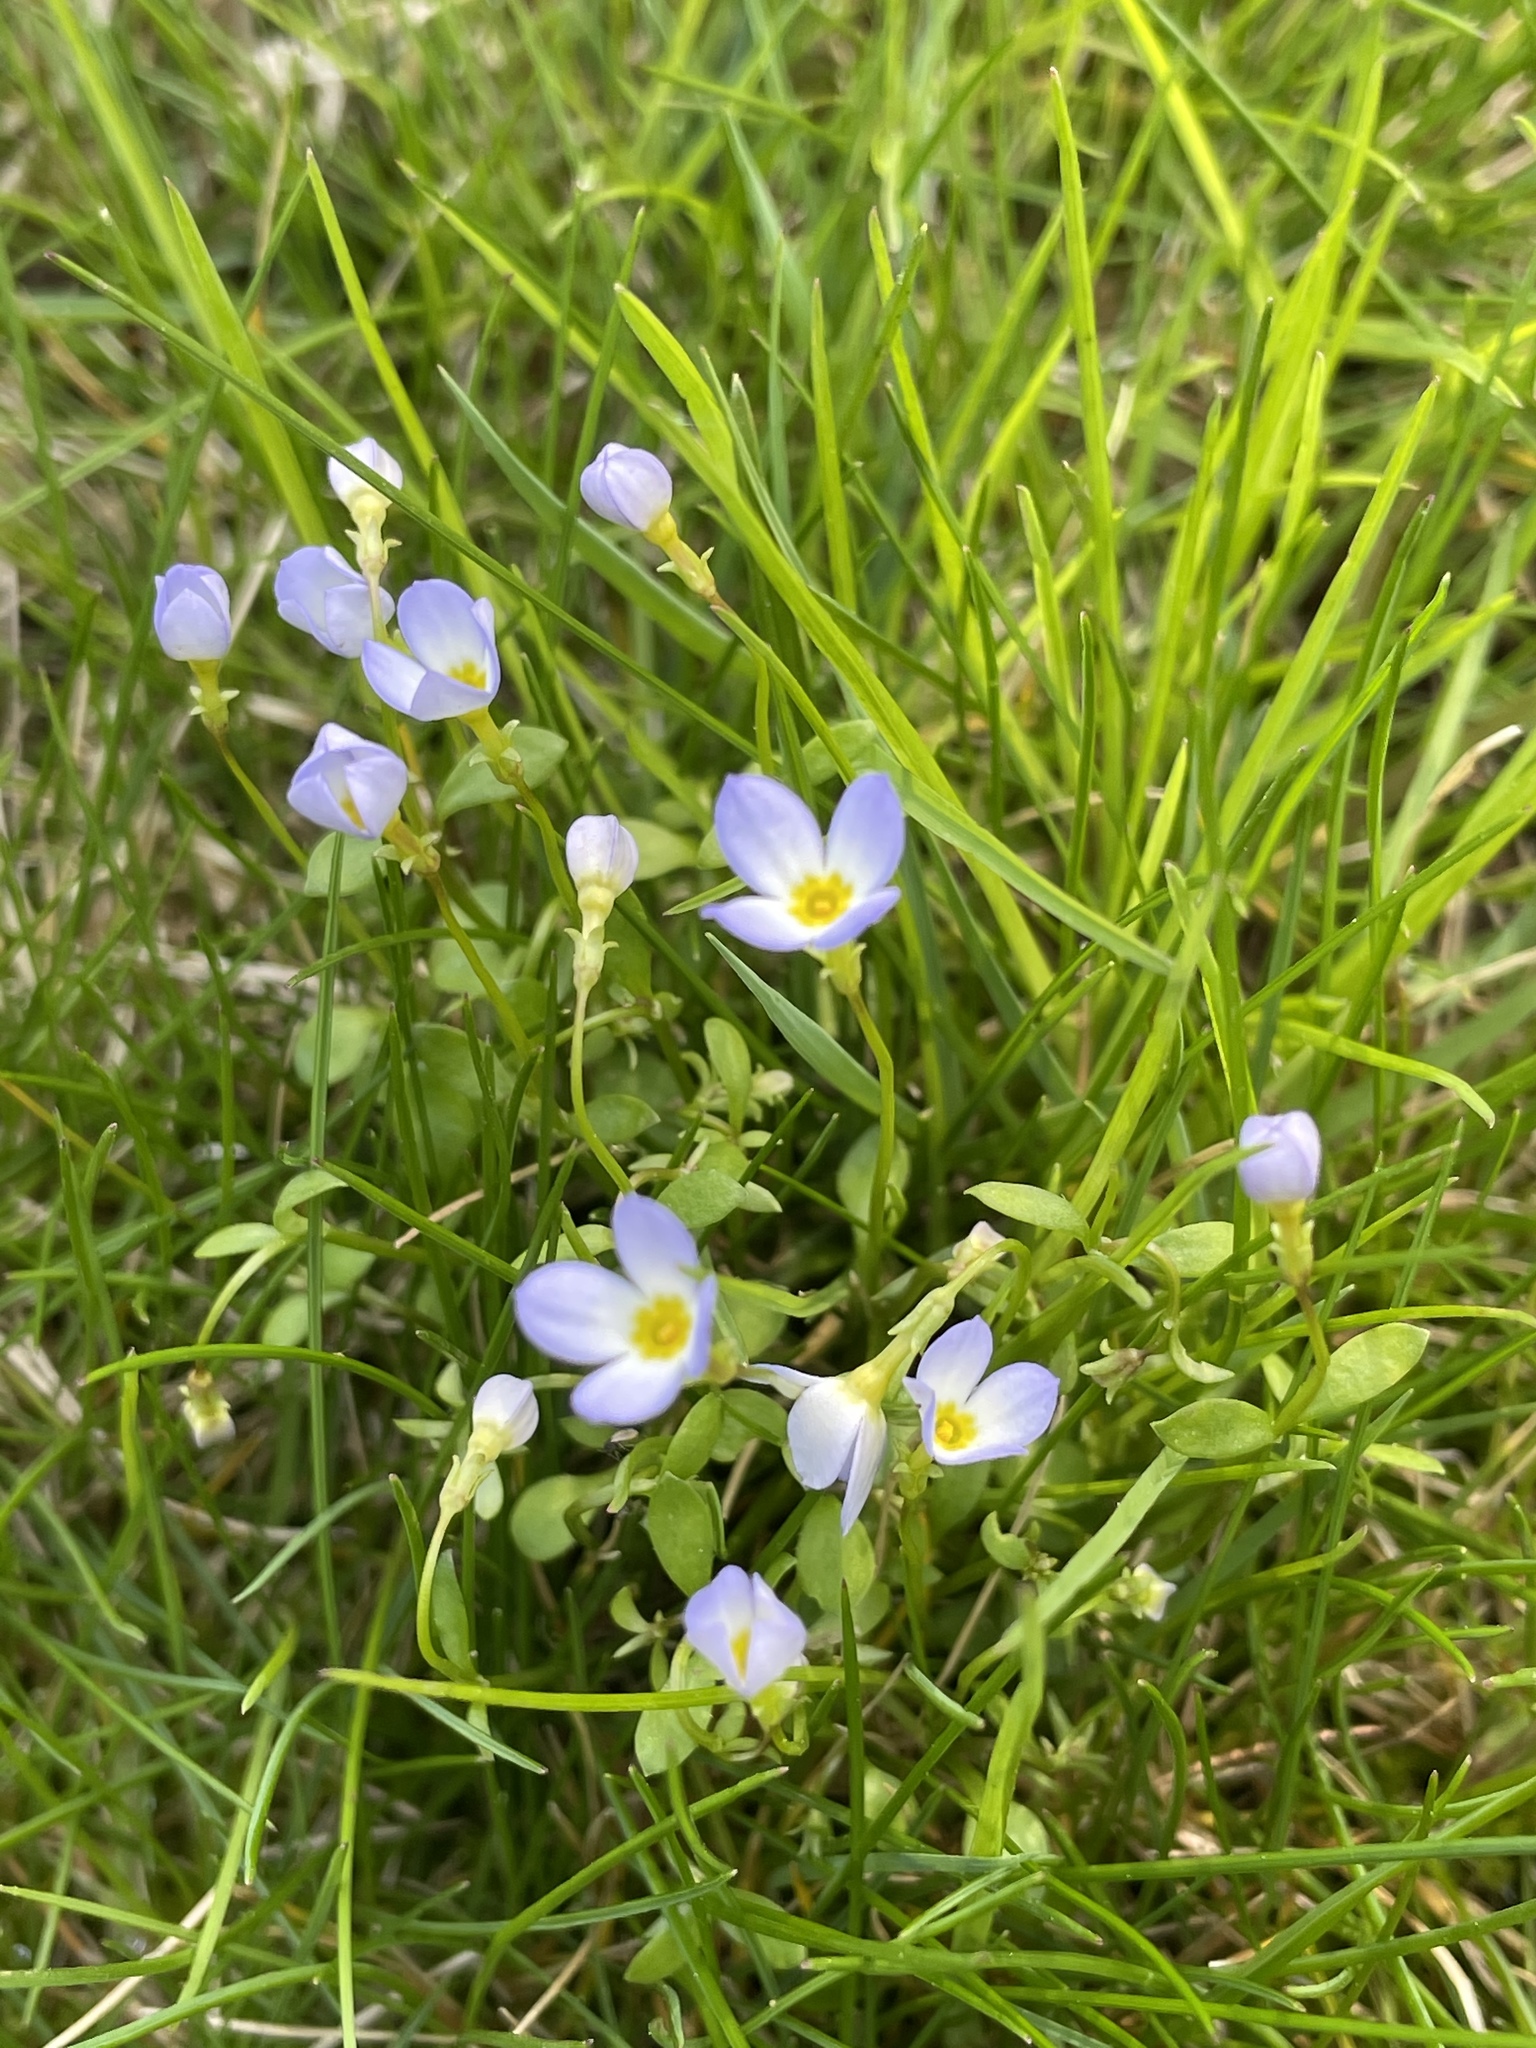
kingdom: Plantae
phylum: Tracheophyta
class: Magnoliopsida
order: Gentianales
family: Rubiaceae
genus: Houstonia
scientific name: Houstonia caerulea
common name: Bluets
